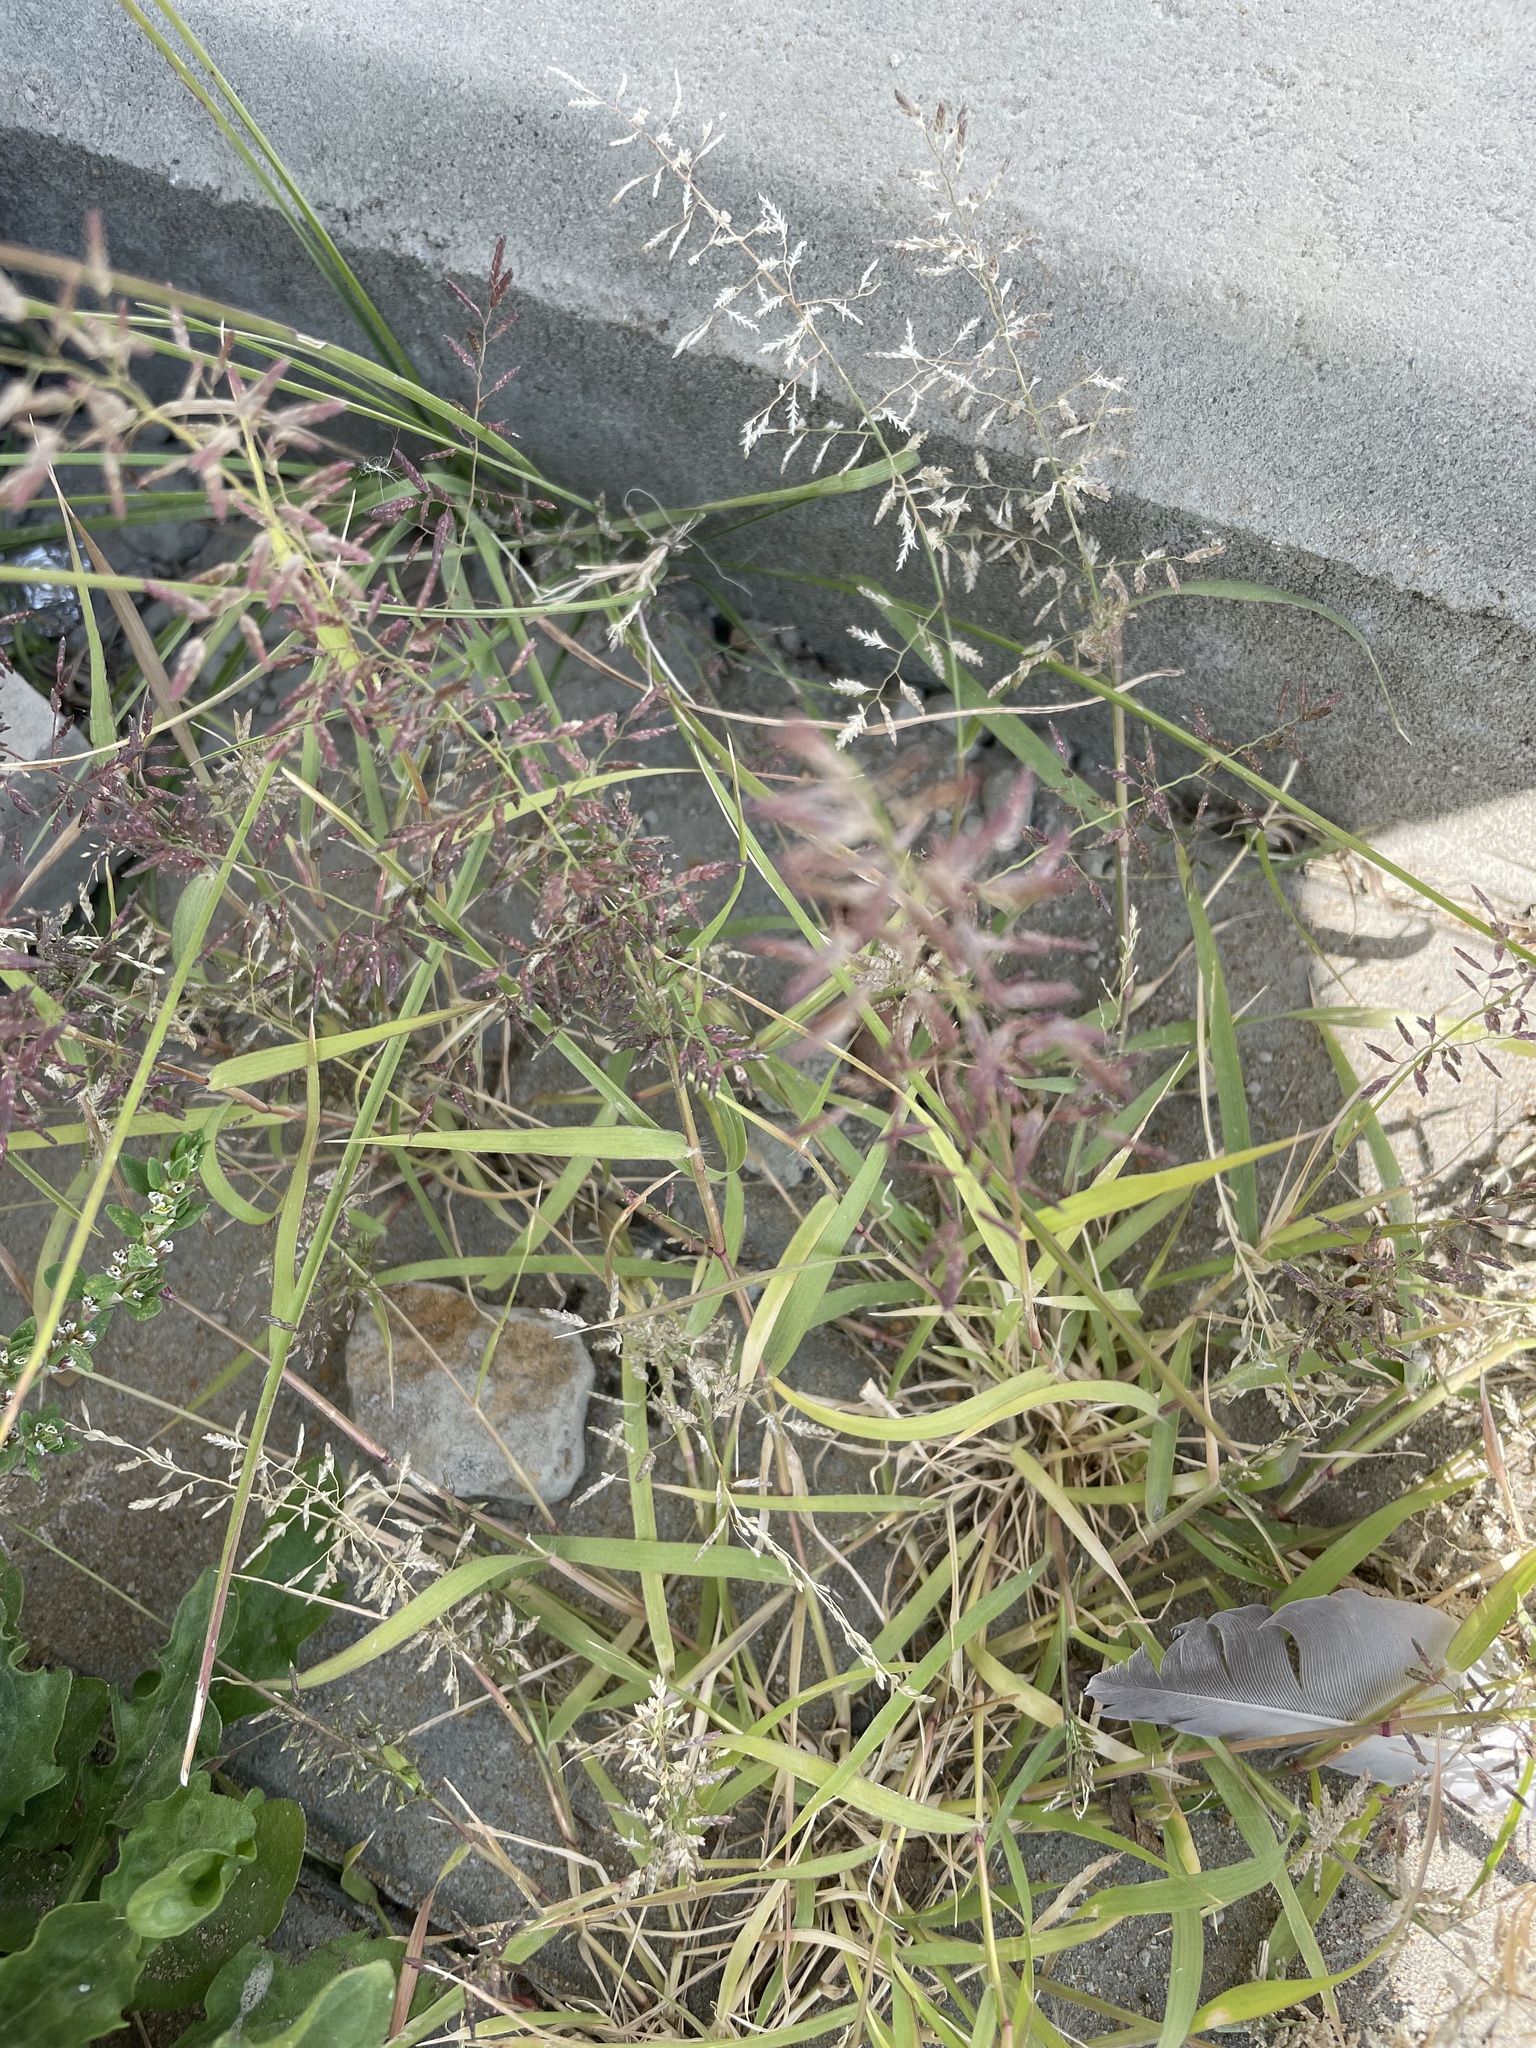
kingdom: Plantae
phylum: Tracheophyta
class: Liliopsida
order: Poales
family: Poaceae
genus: Eragrostis
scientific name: Eragrostis minor
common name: Small love-grass
